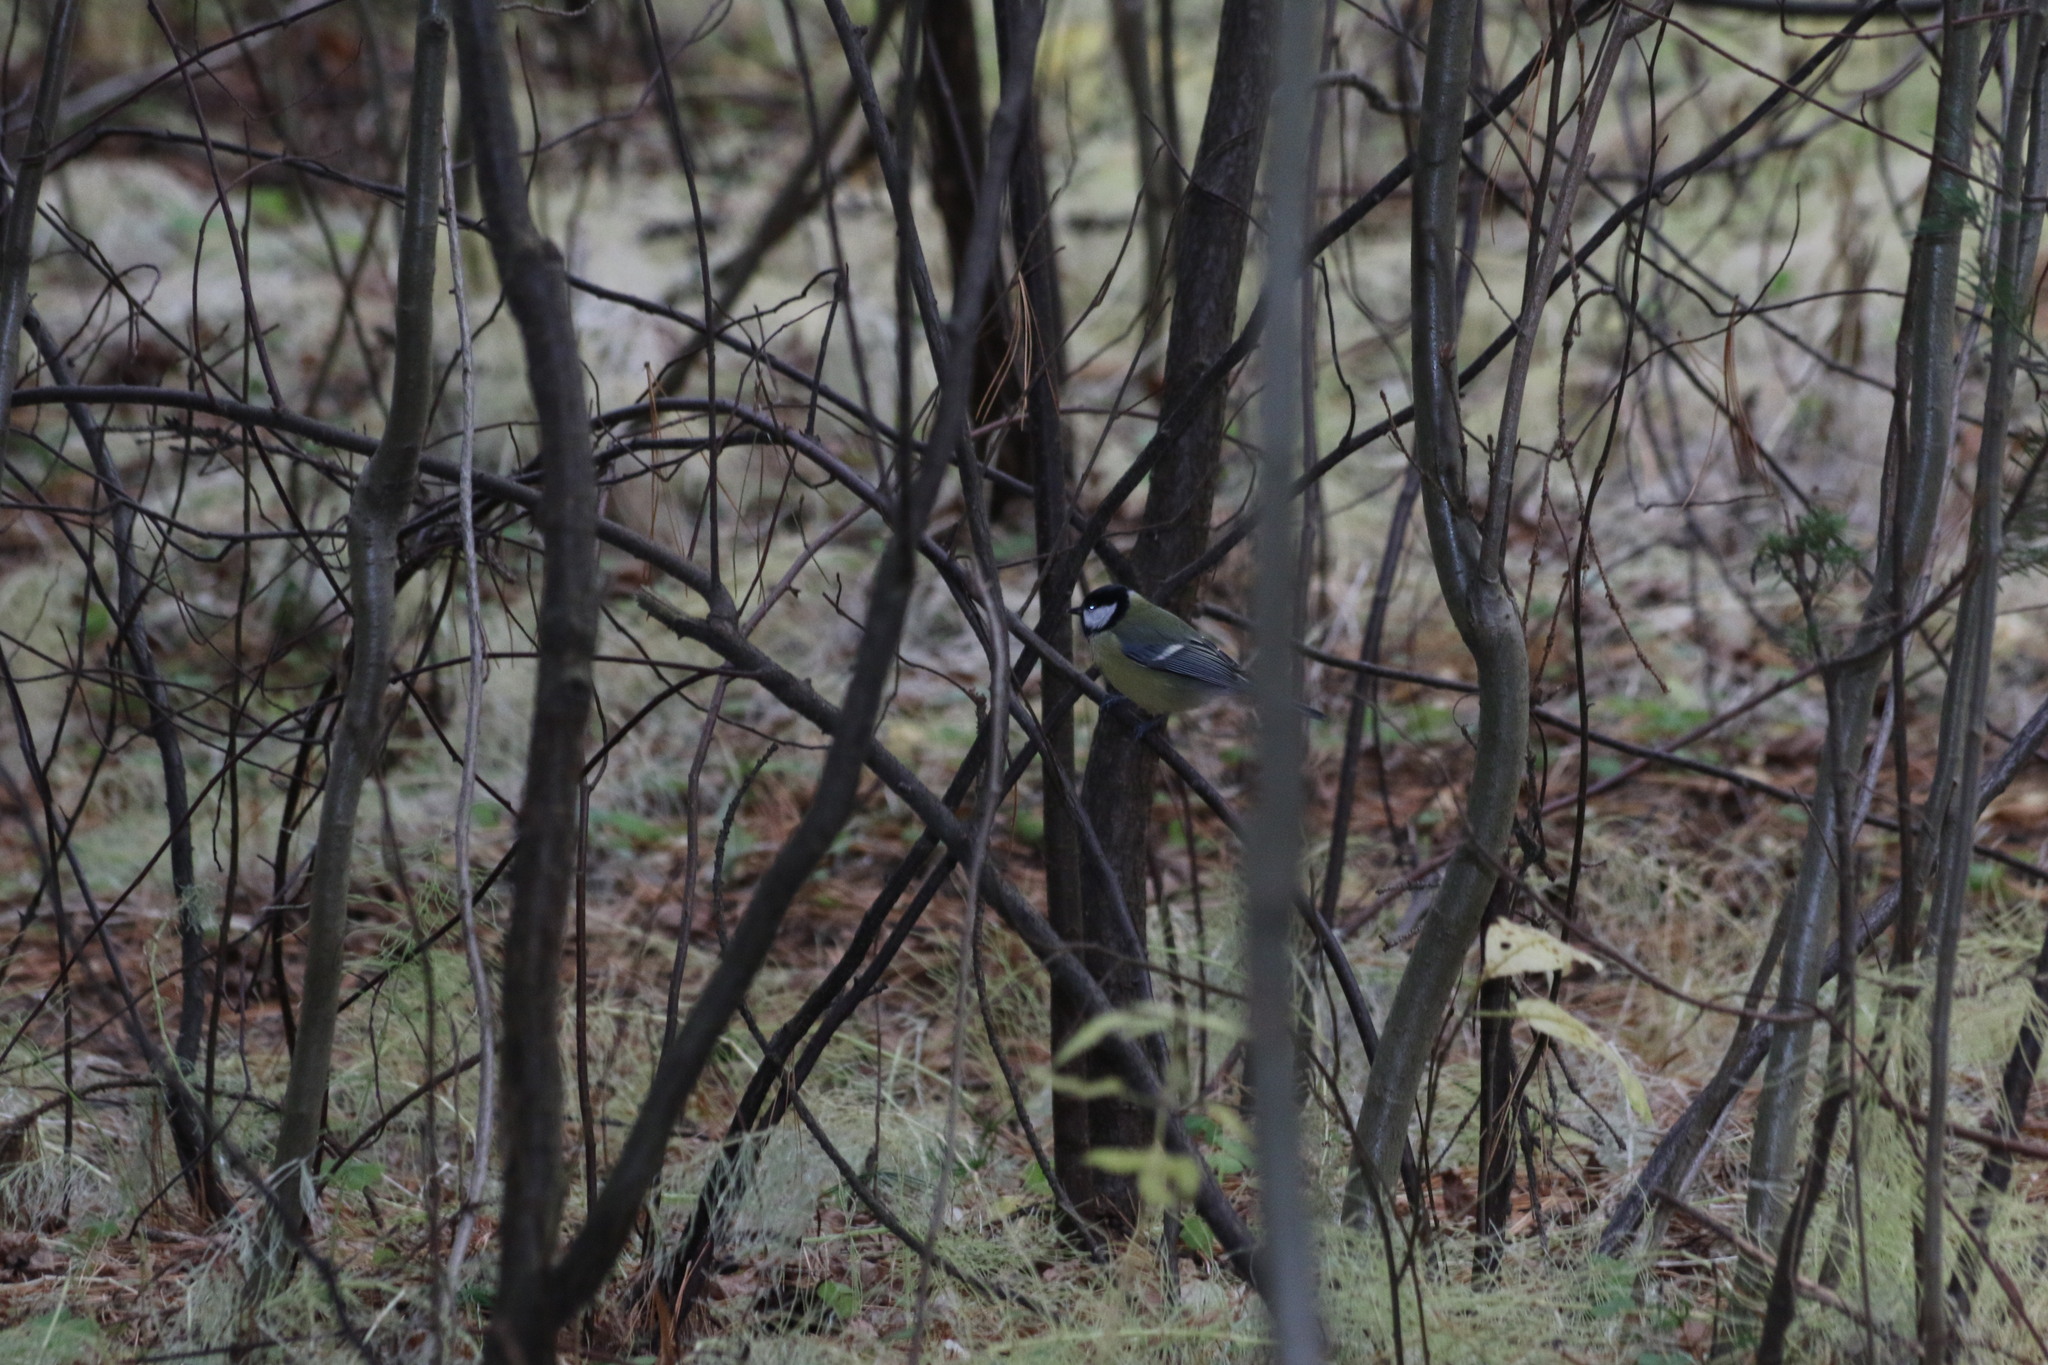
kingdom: Animalia
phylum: Chordata
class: Aves
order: Passeriformes
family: Paridae
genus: Parus
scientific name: Parus major
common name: Great tit
